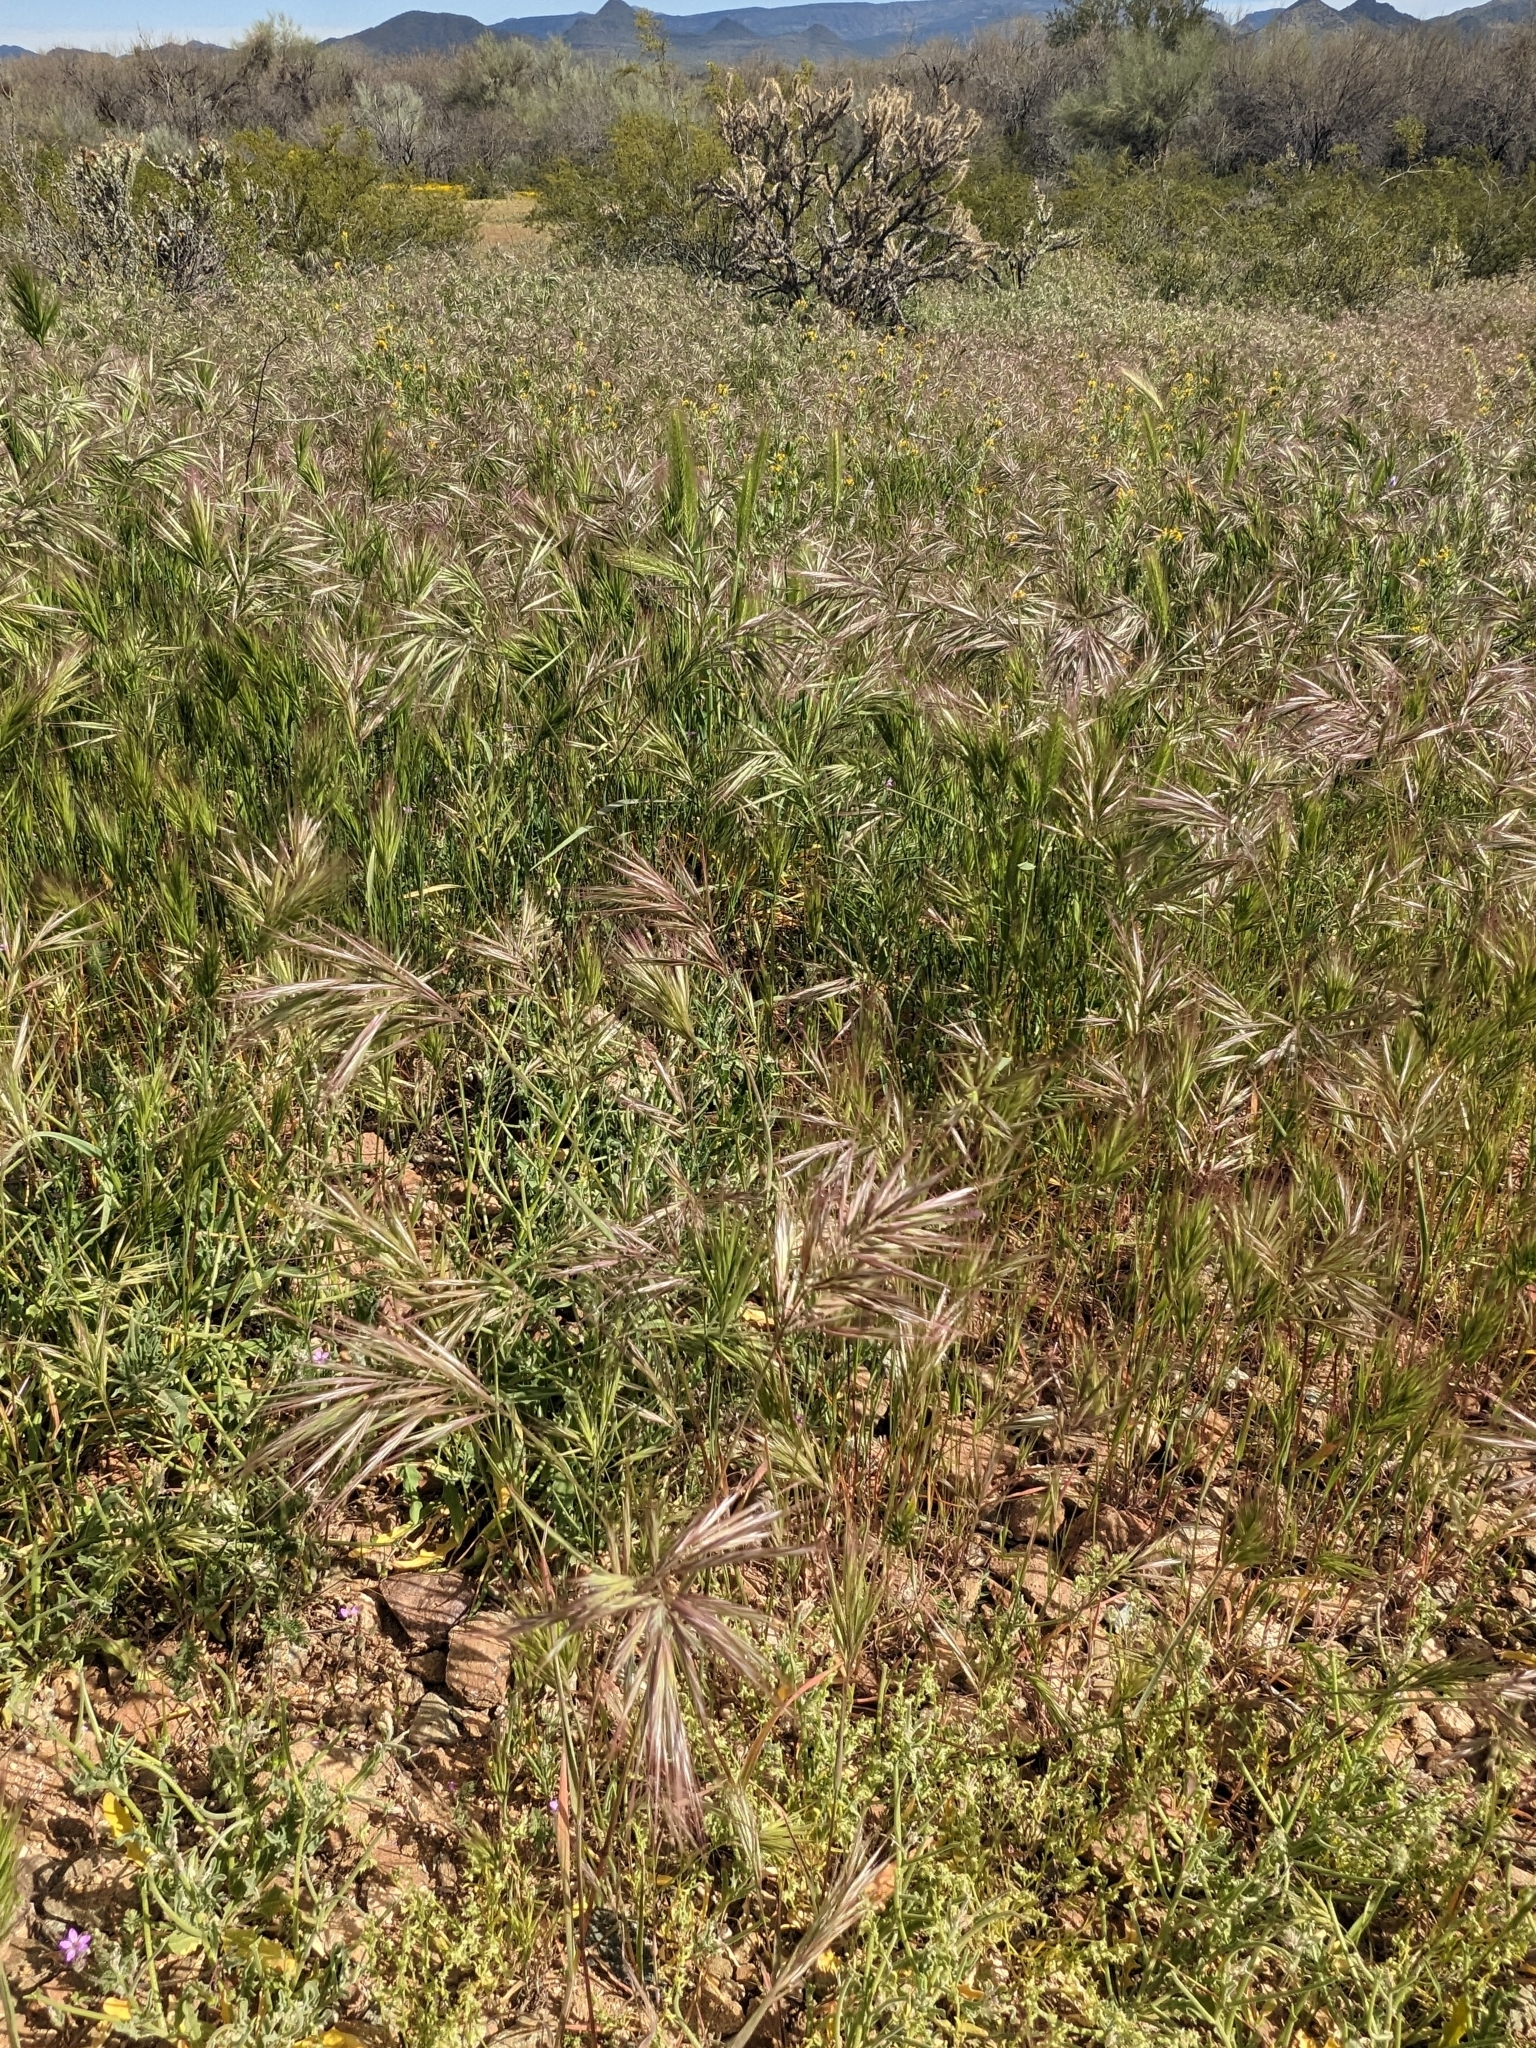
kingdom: Plantae
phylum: Tracheophyta
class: Liliopsida
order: Poales
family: Poaceae
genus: Bromus
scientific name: Bromus rubens
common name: Red brome
